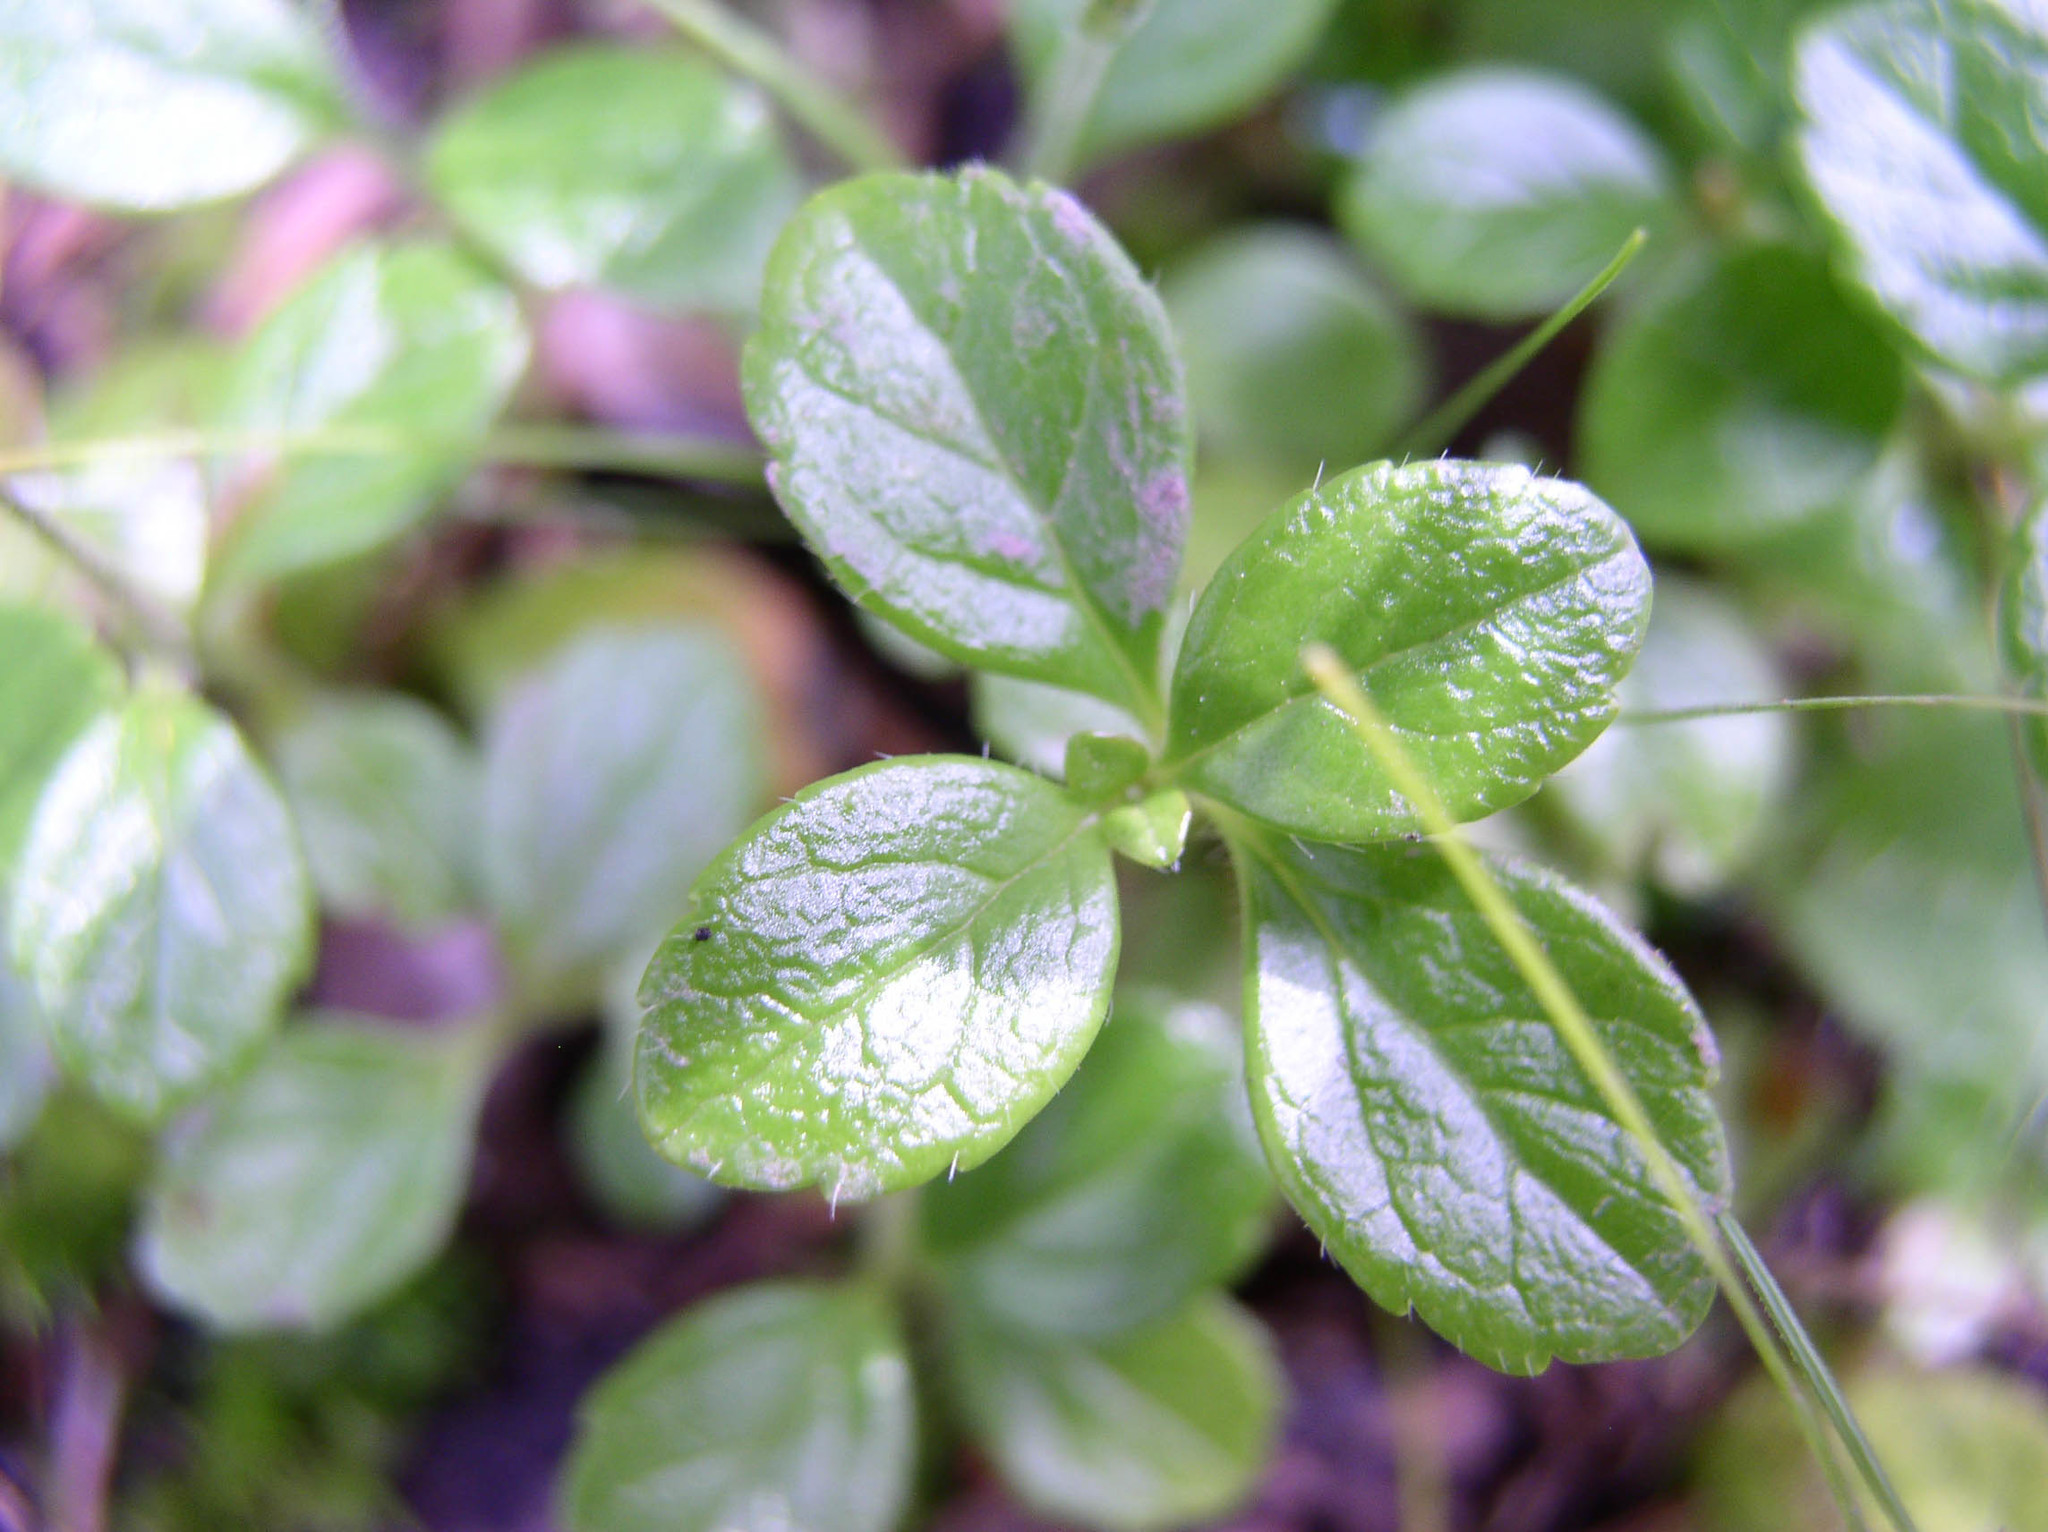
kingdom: Plantae
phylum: Tracheophyta
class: Magnoliopsida
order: Dipsacales
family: Caprifoliaceae
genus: Linnaea
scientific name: Linnaea borealis
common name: Twinflower
